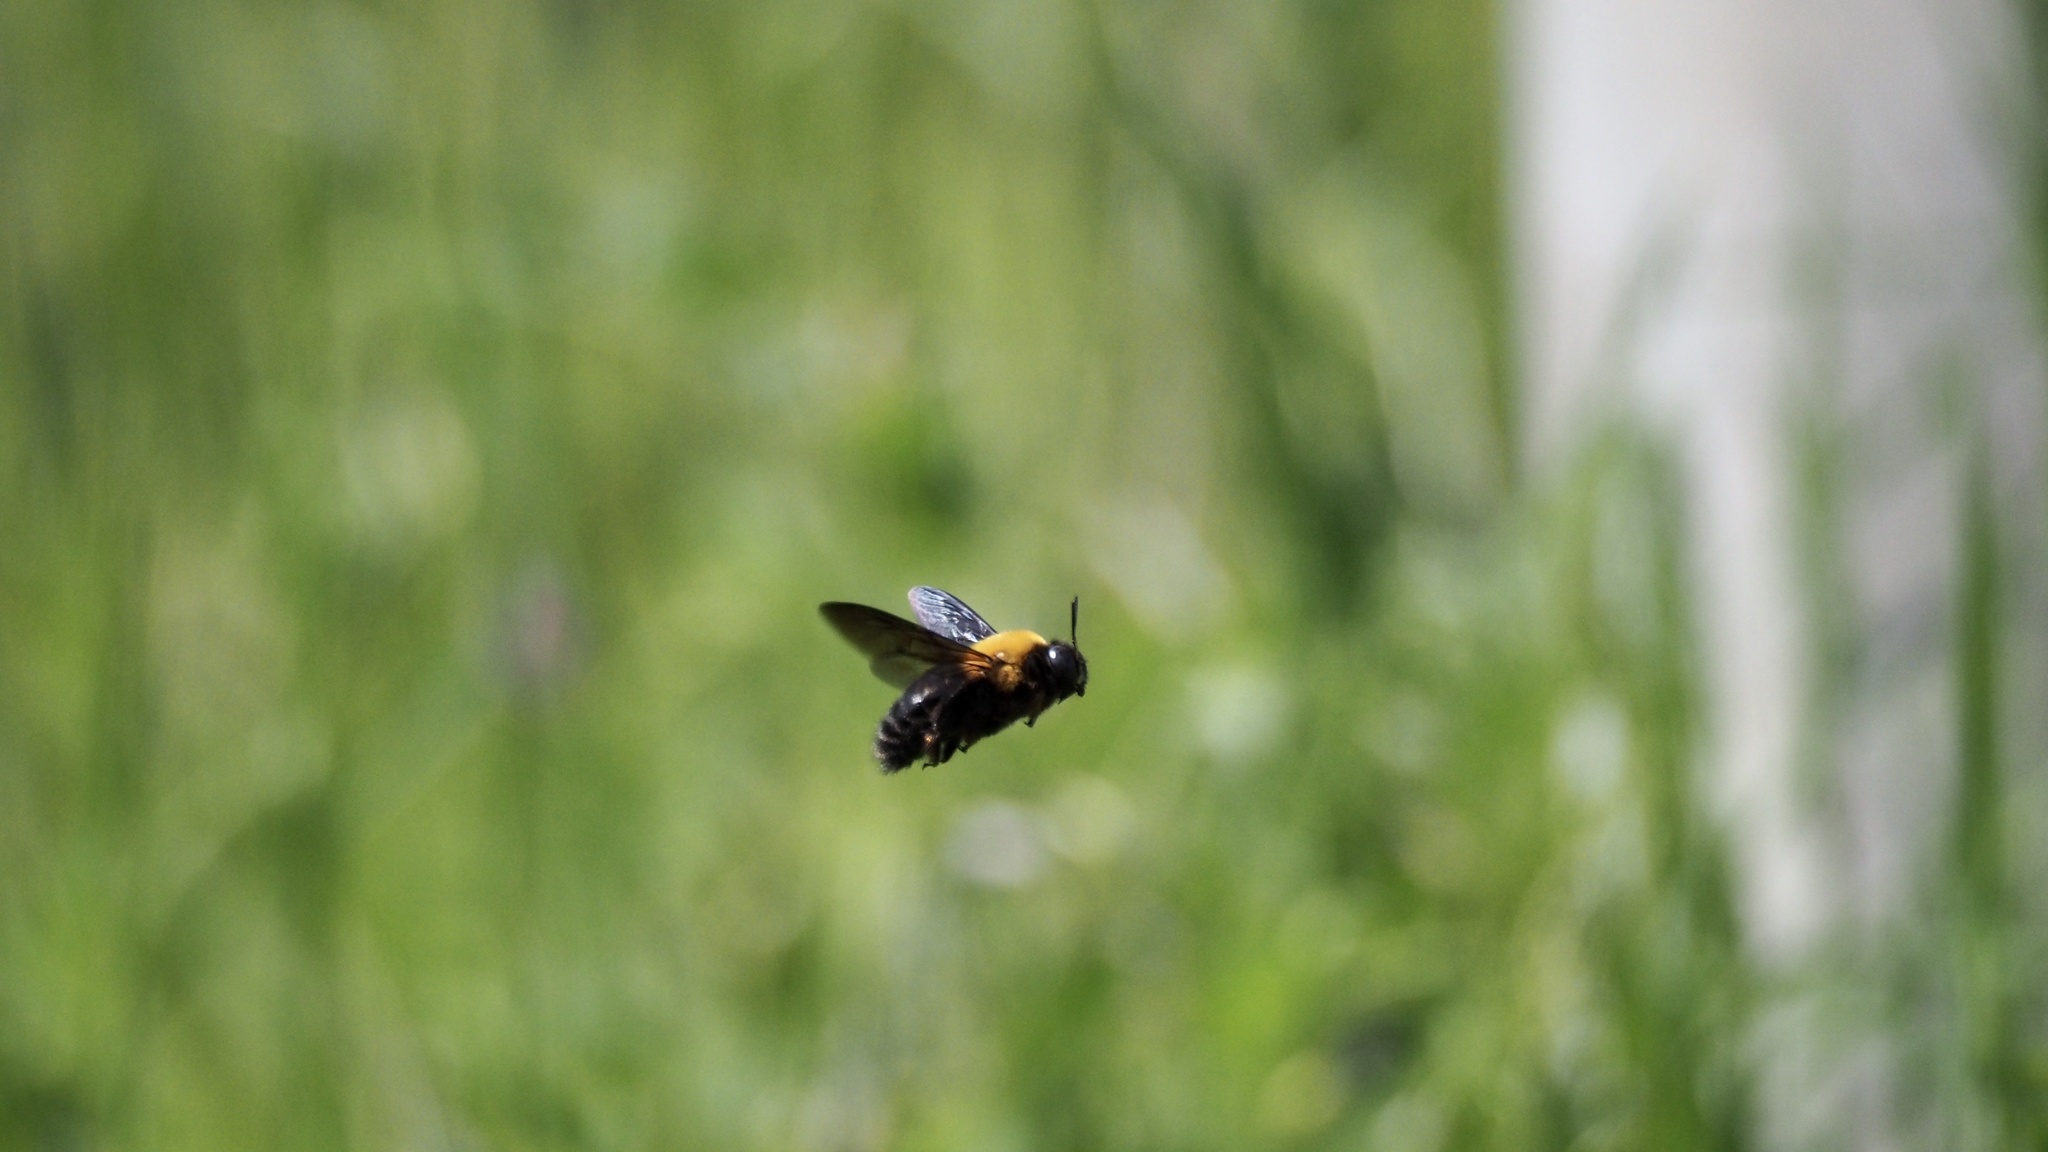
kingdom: Animalia
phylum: Arthropoda
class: Insecta
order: Hymenoptera
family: Apidae
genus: Xylocopa
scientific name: Xylocopa appendiculata
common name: Japanese carpenter bee
